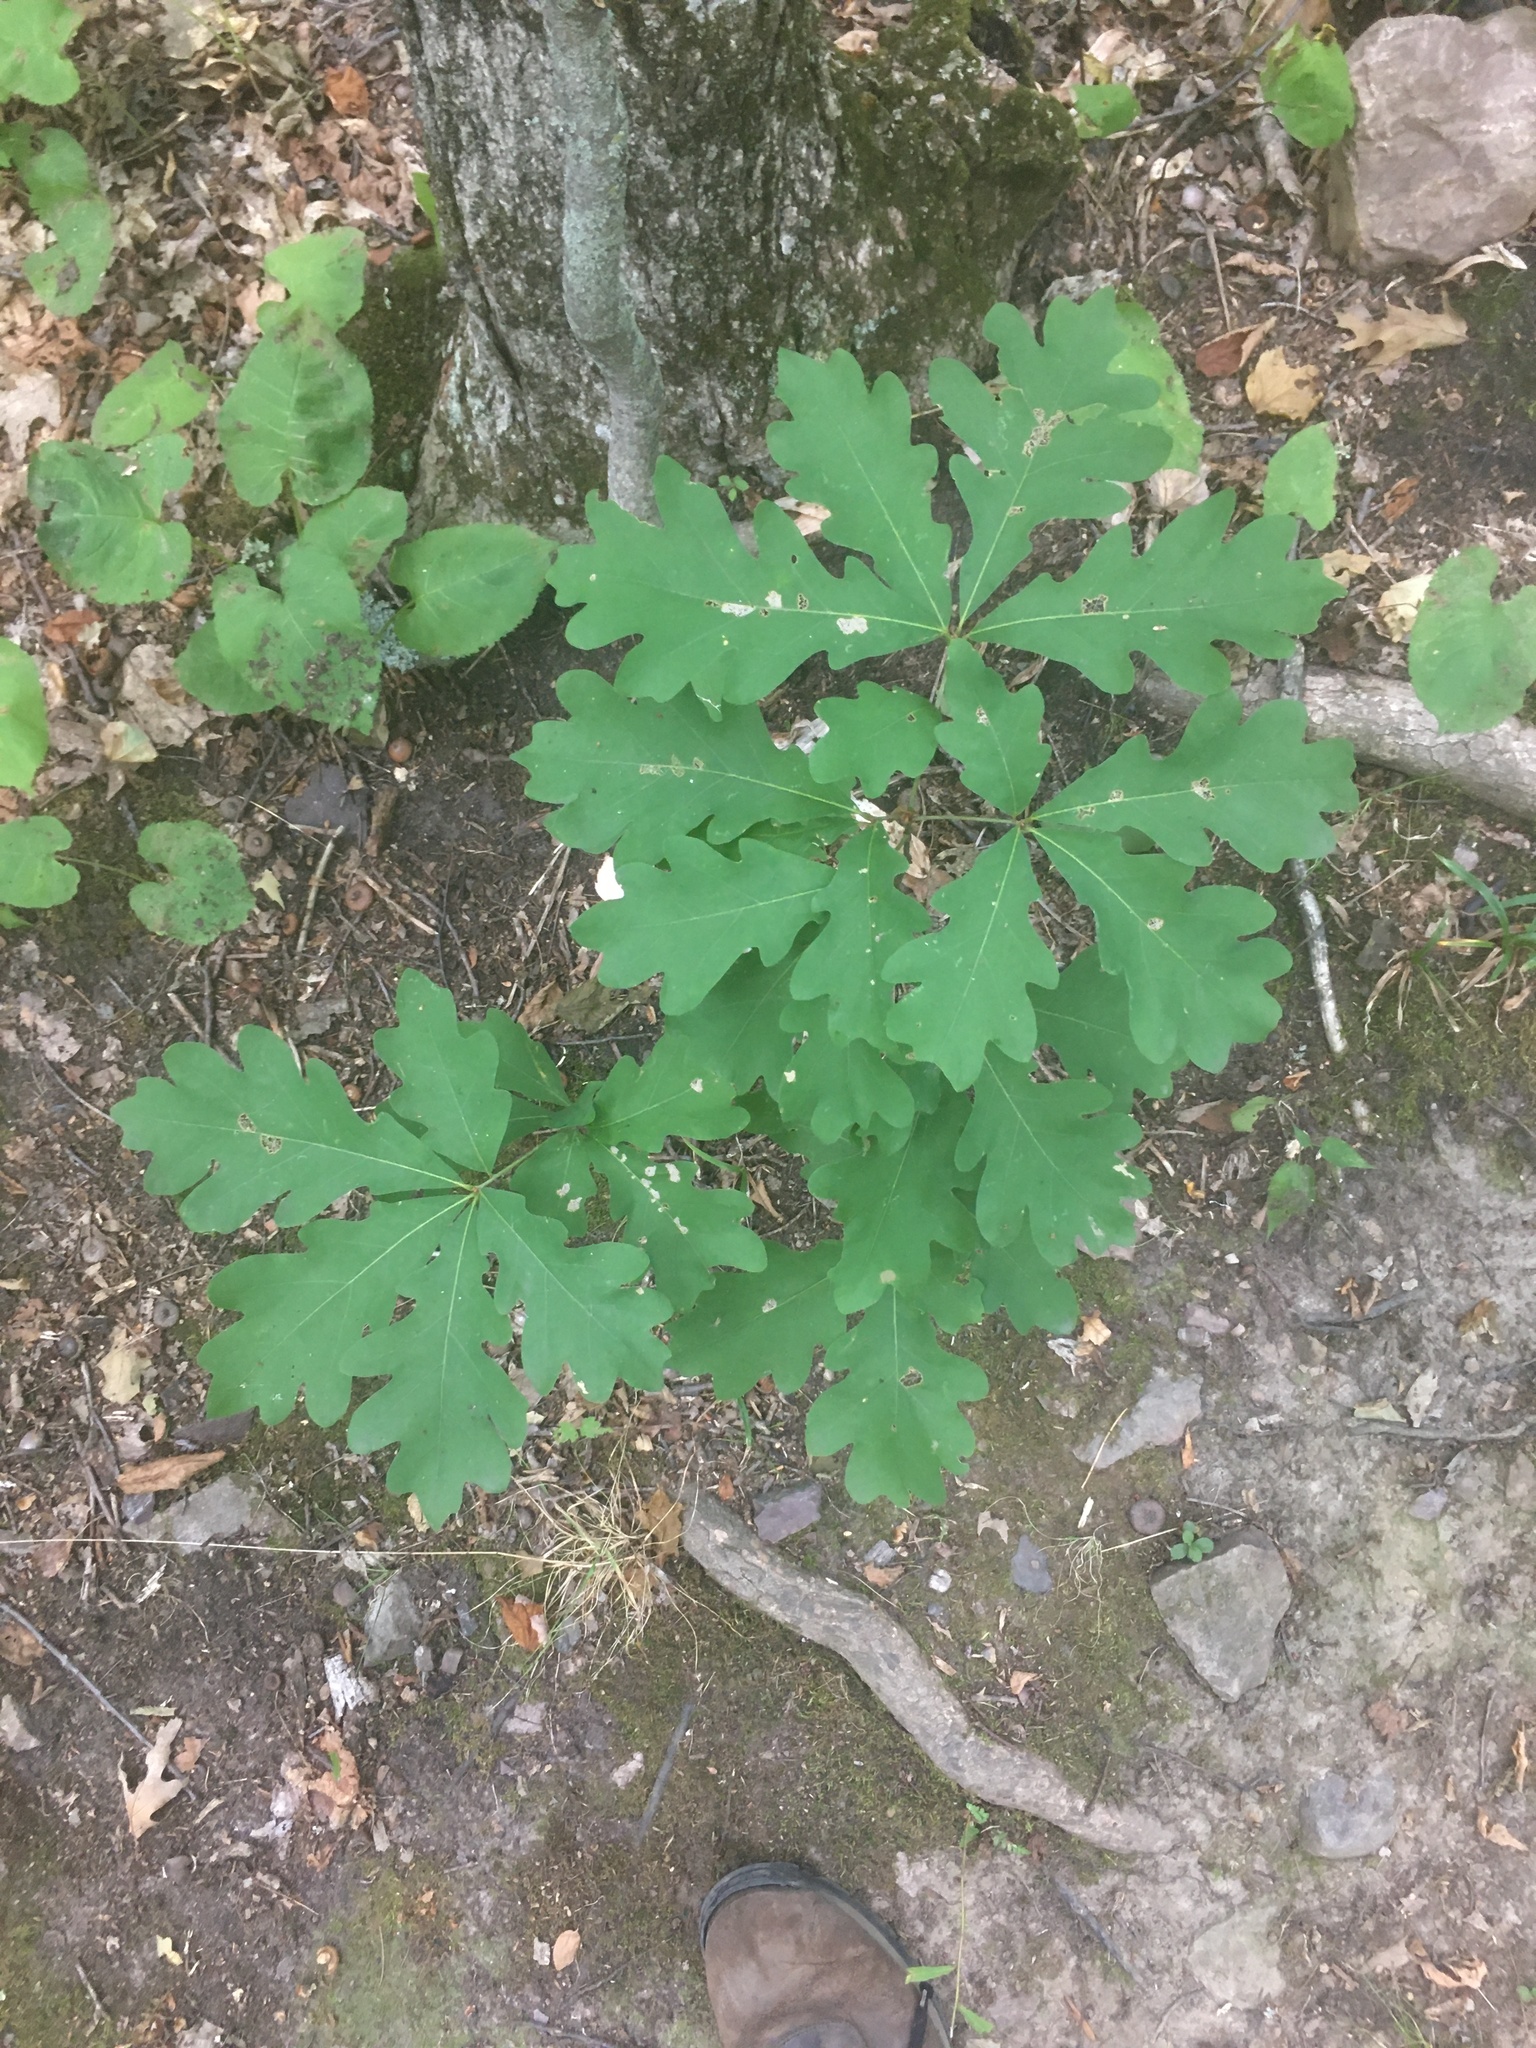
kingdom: Plantae
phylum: Tracheophyta
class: Magnoliopsida
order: Fagales
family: Fagaceae
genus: Quercus
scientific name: Quercus alba
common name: White oak
